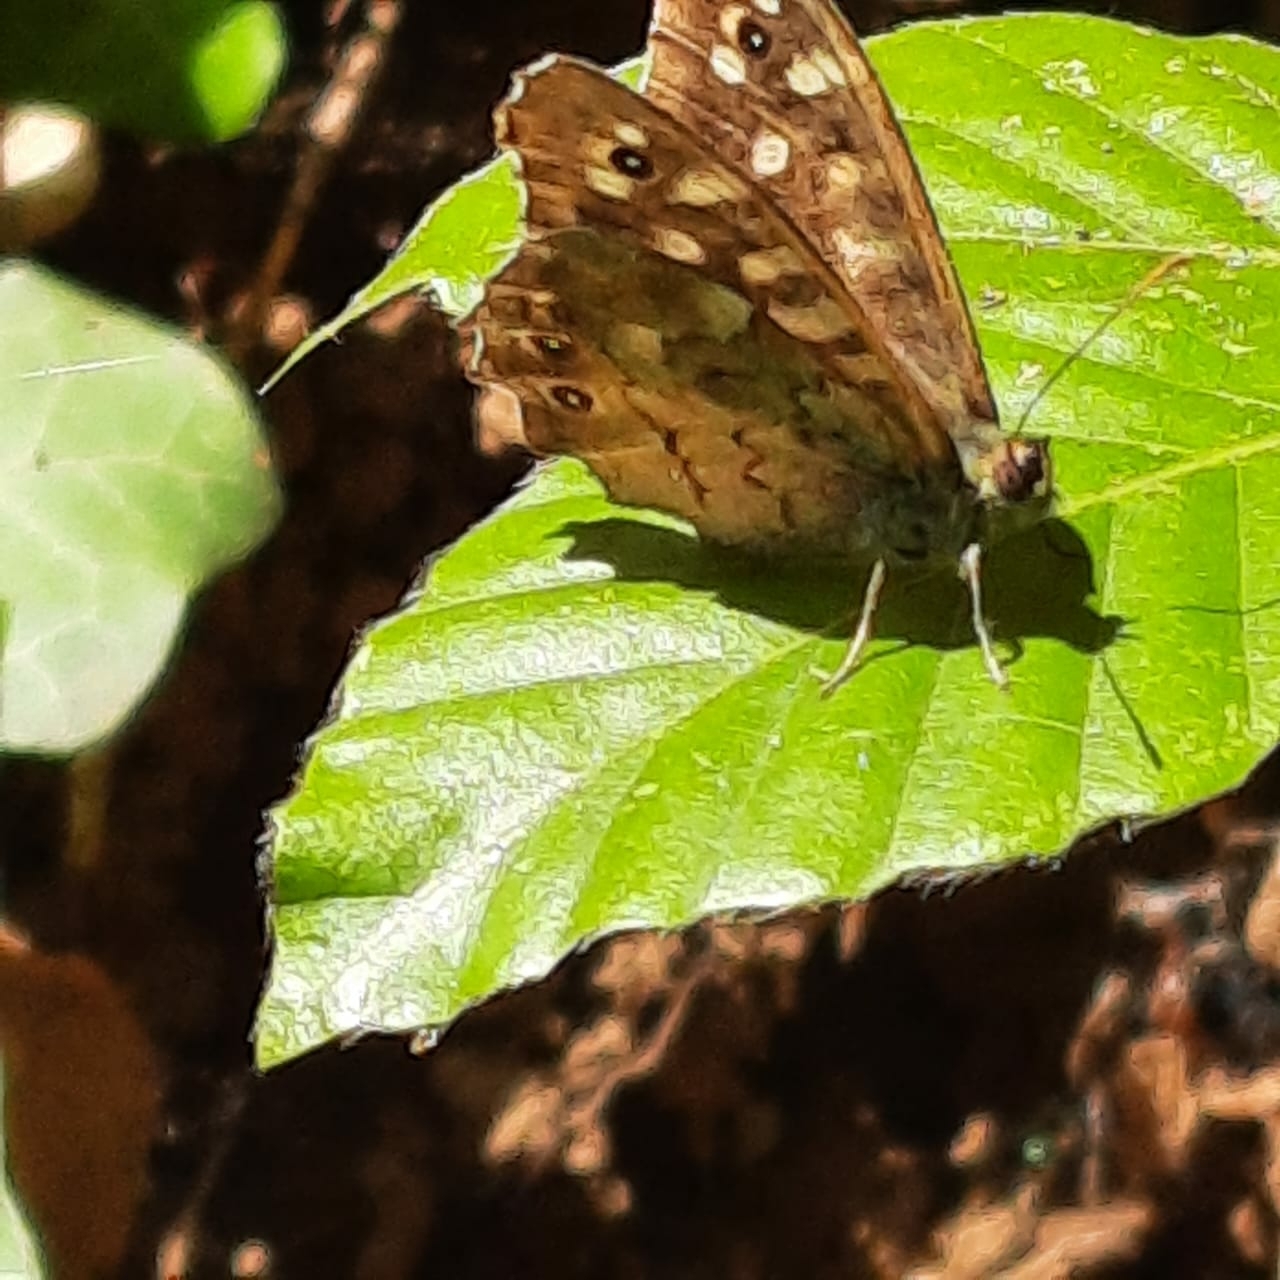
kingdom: Animalia
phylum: Arthropoda
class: Insecta
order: Lepidoptera
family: Nymphalidae
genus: Pararge
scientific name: Pararge aegeria
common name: Speckled wood
